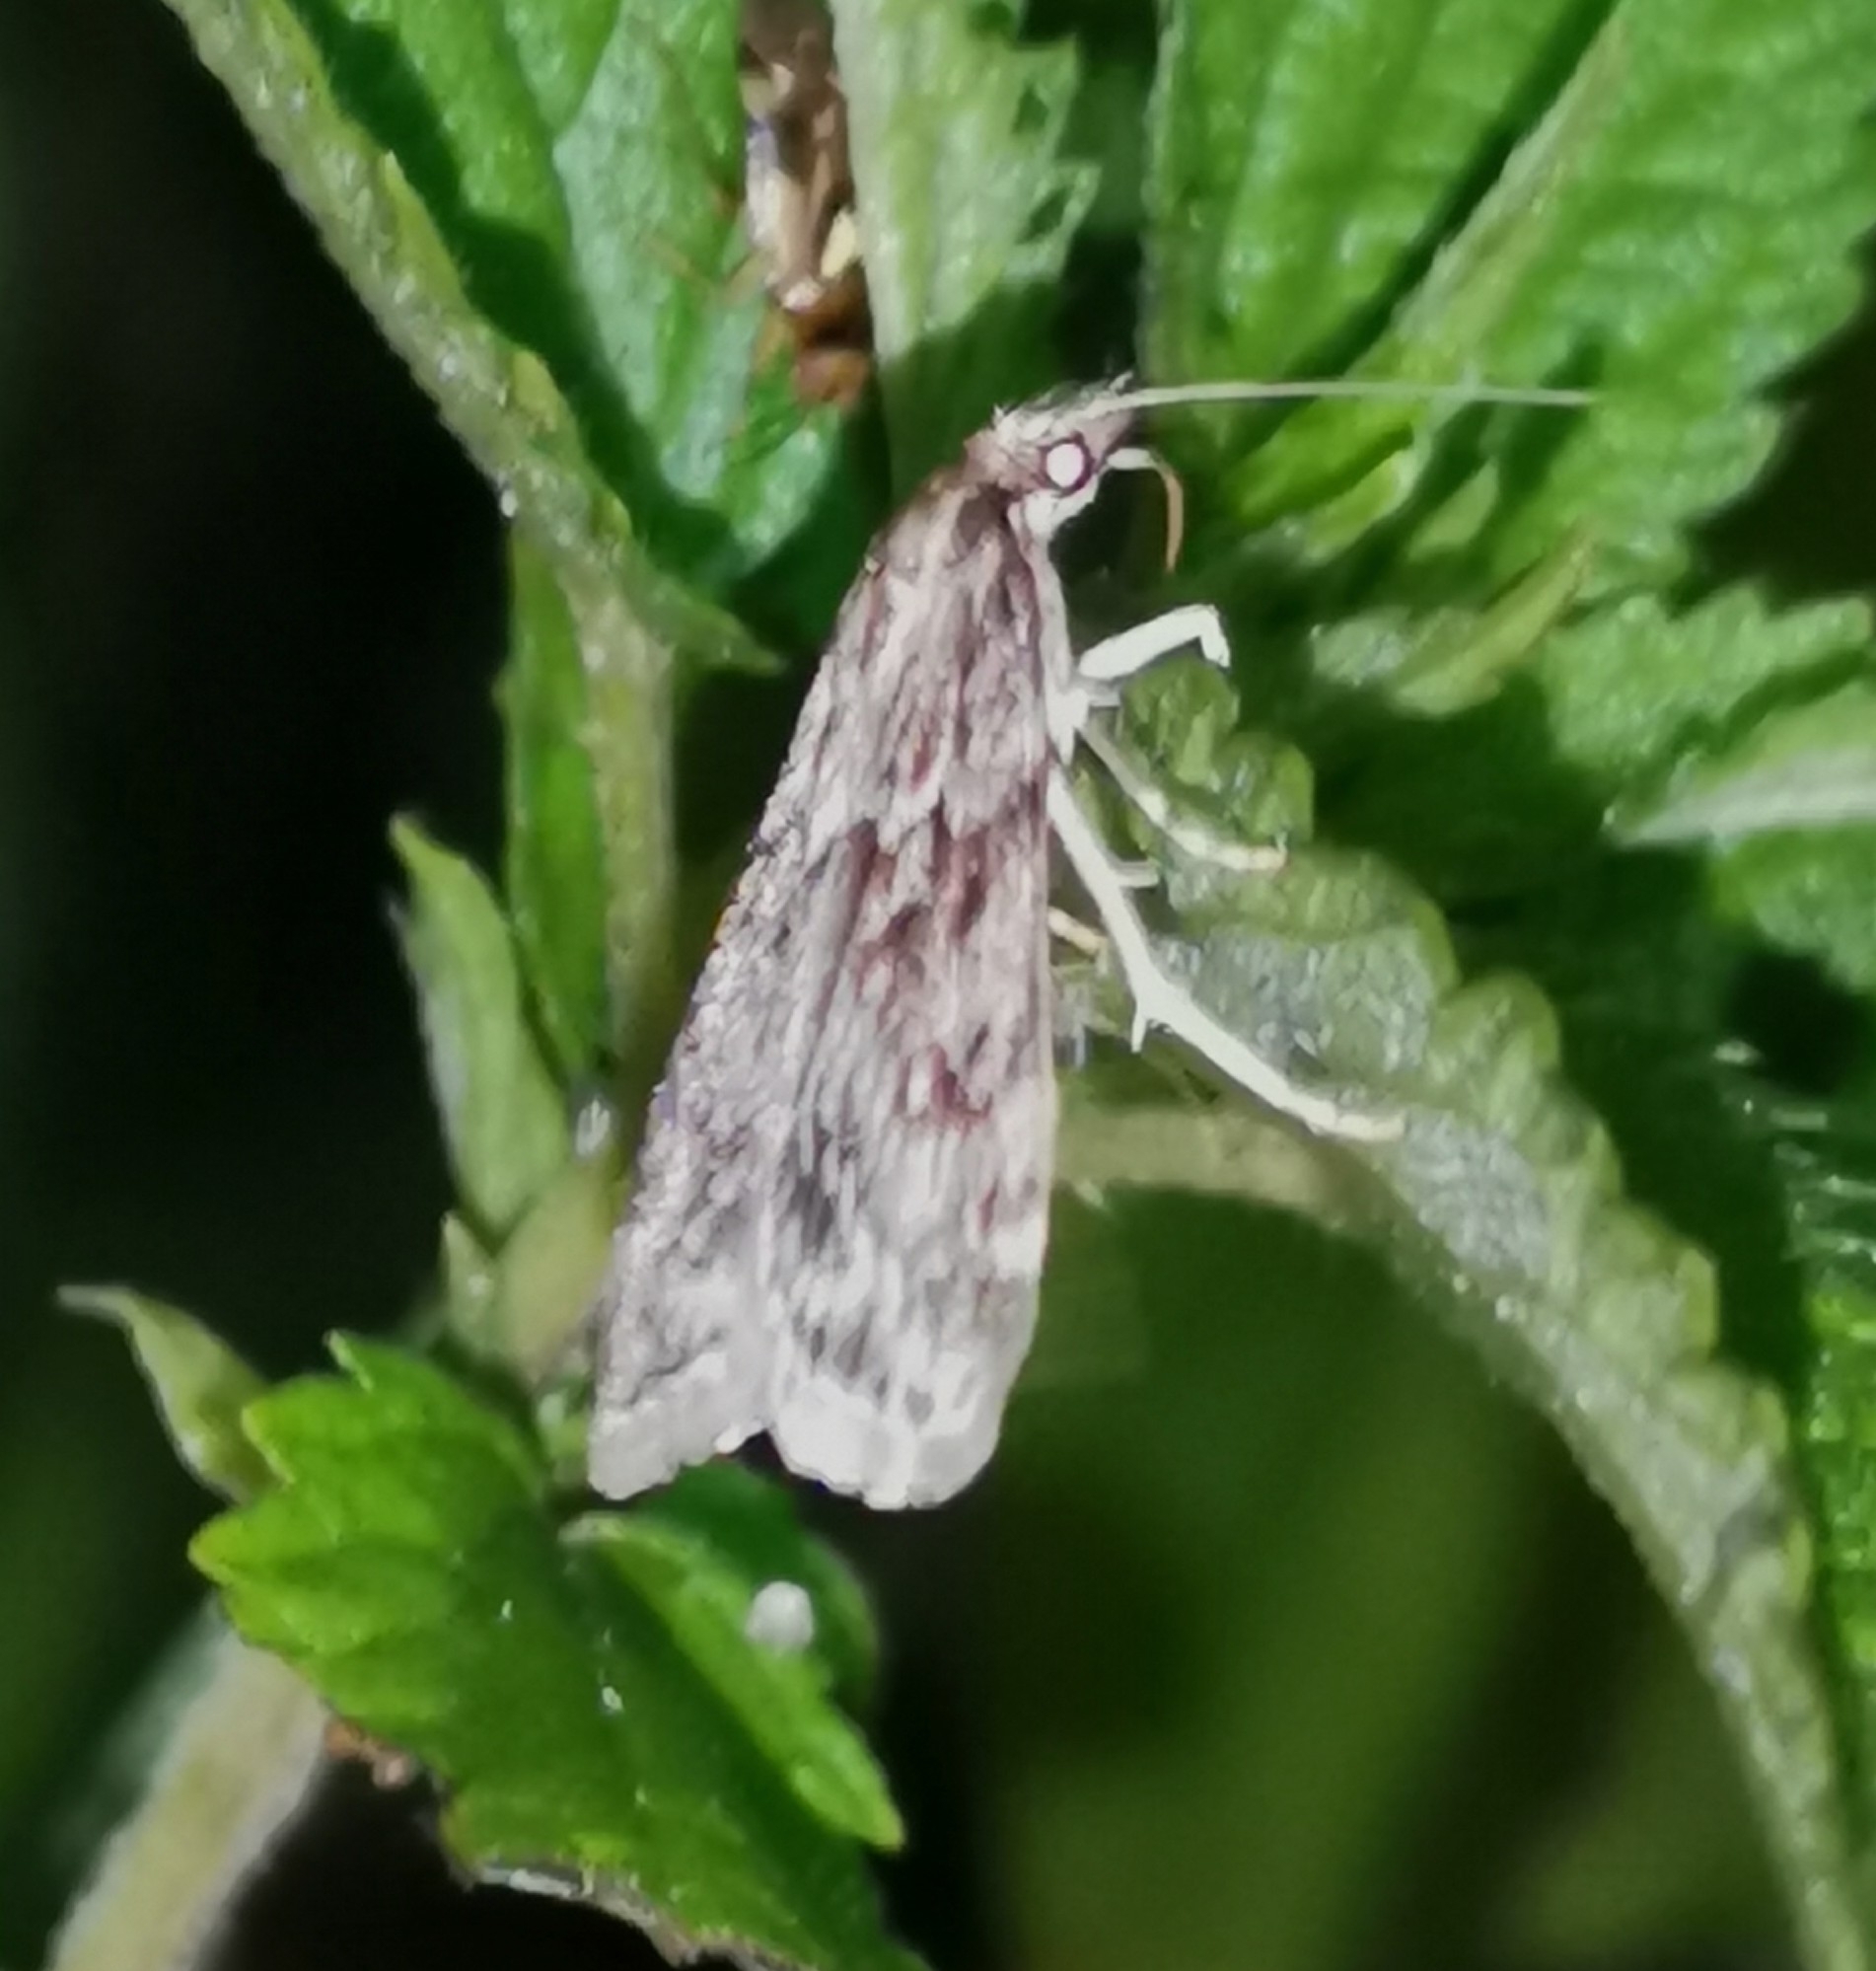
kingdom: Animalia
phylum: Arthropoda
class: Insecta
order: Lepidoptera
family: Crambidae
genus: Eudonia
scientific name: Eudonia truncicolella
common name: Ground-moss grey
